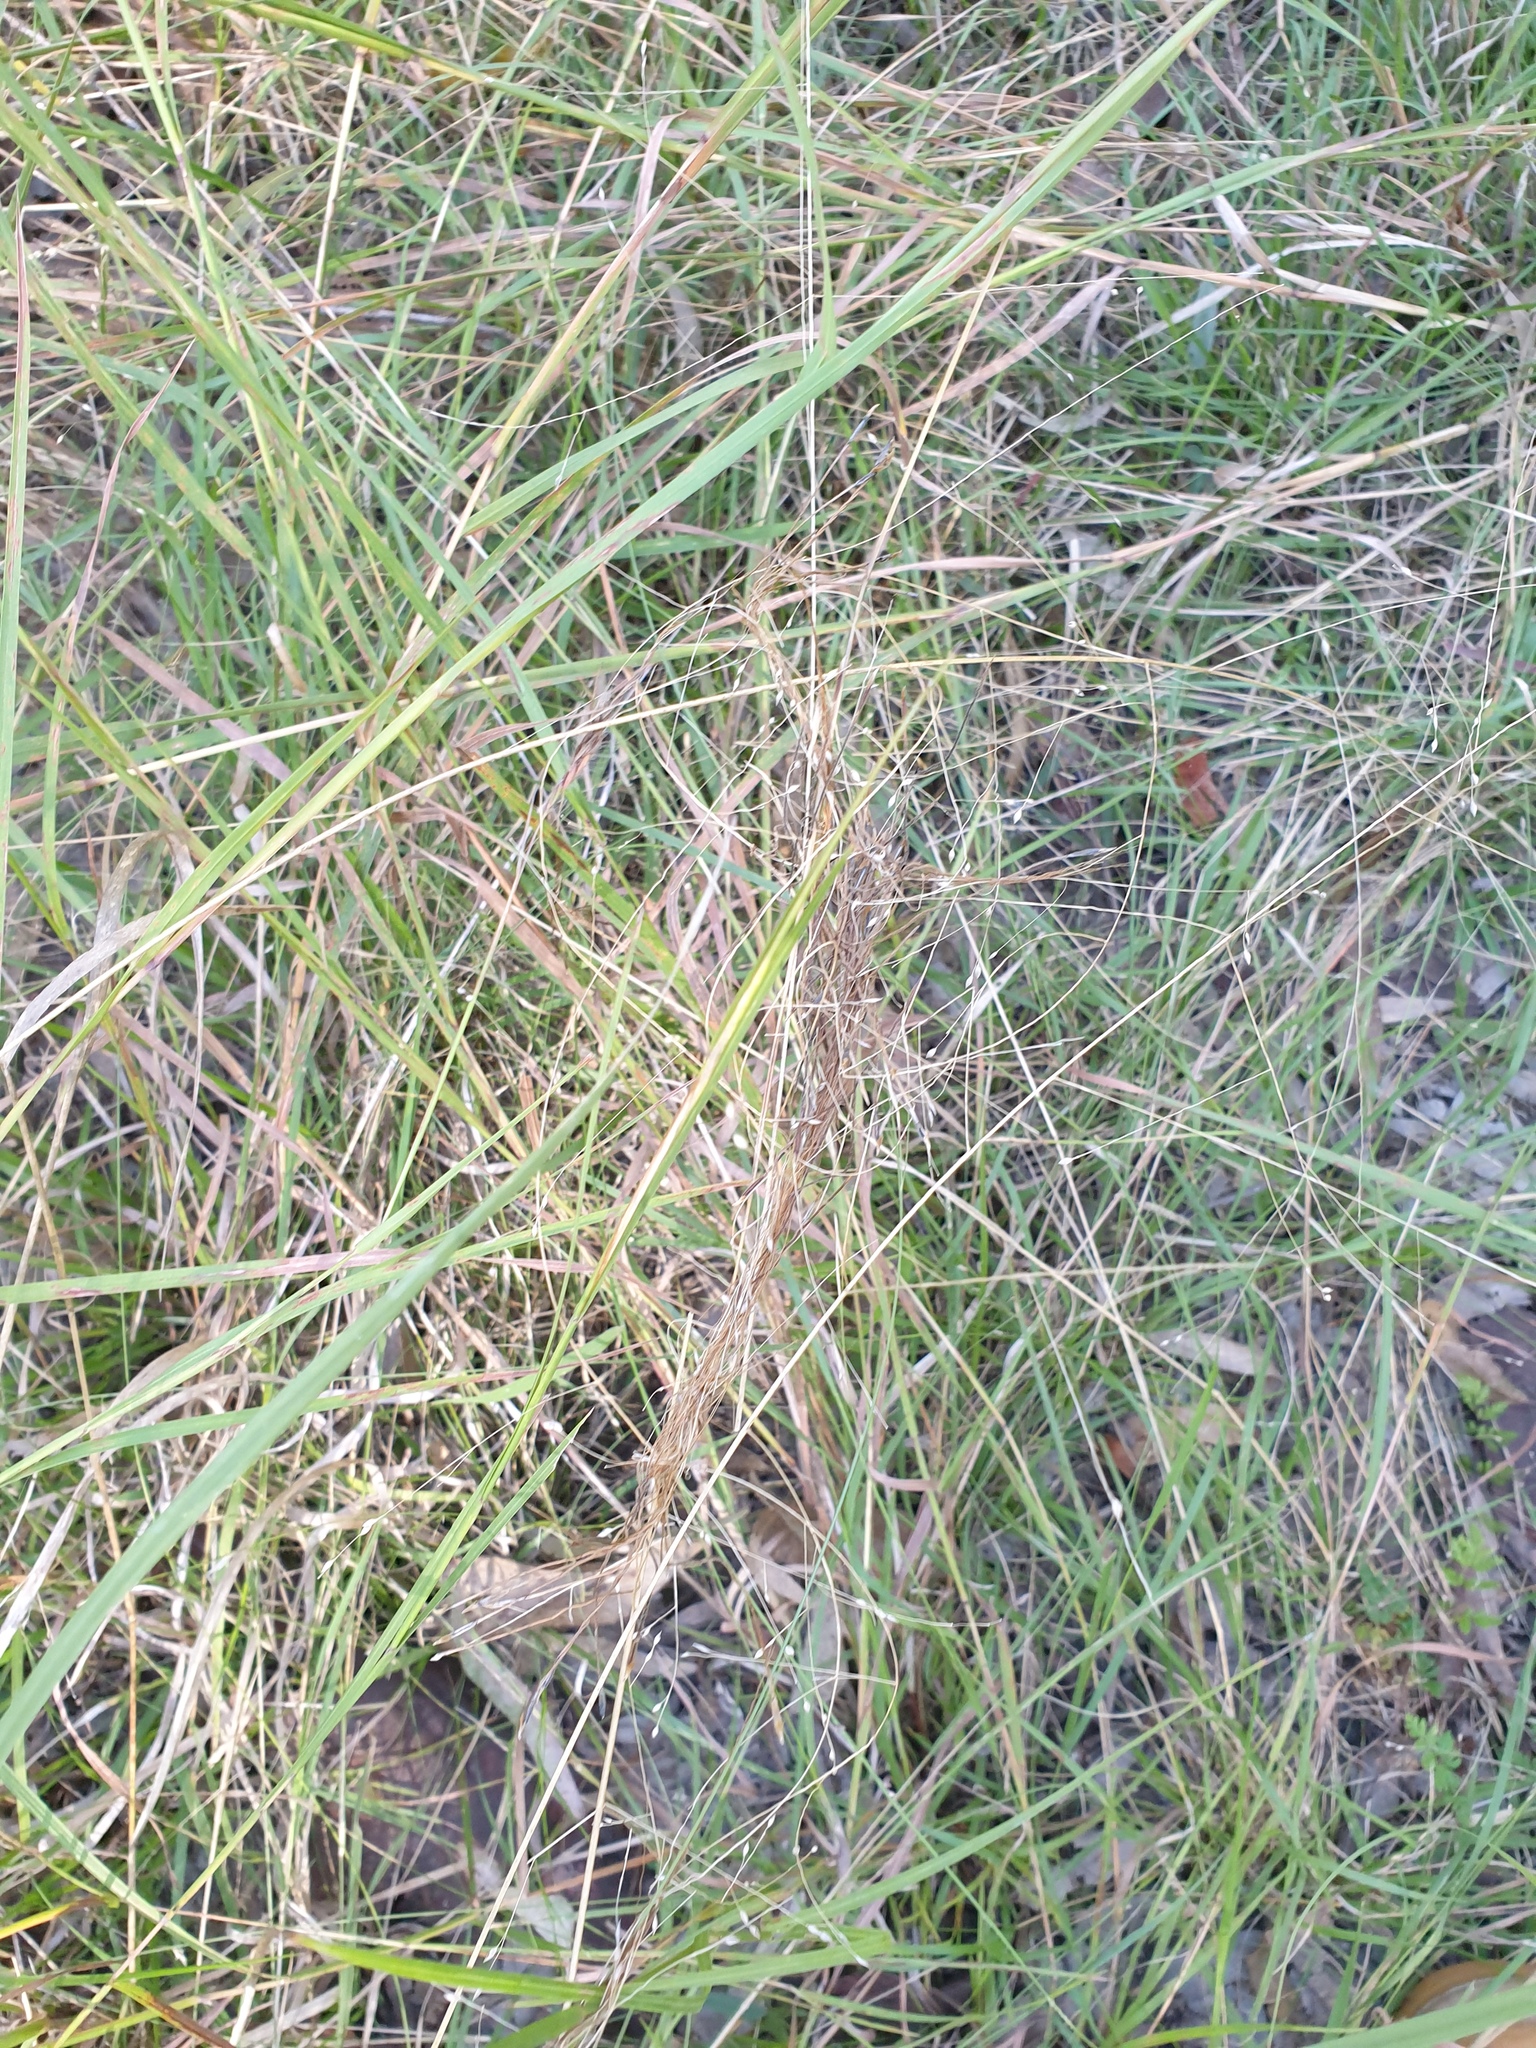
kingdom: Plantae
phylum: Tracheophyta
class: Liliopsida
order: Poales
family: Poaceae
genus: Heteropogon
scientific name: Heteropogon contortus
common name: Tanglehead
